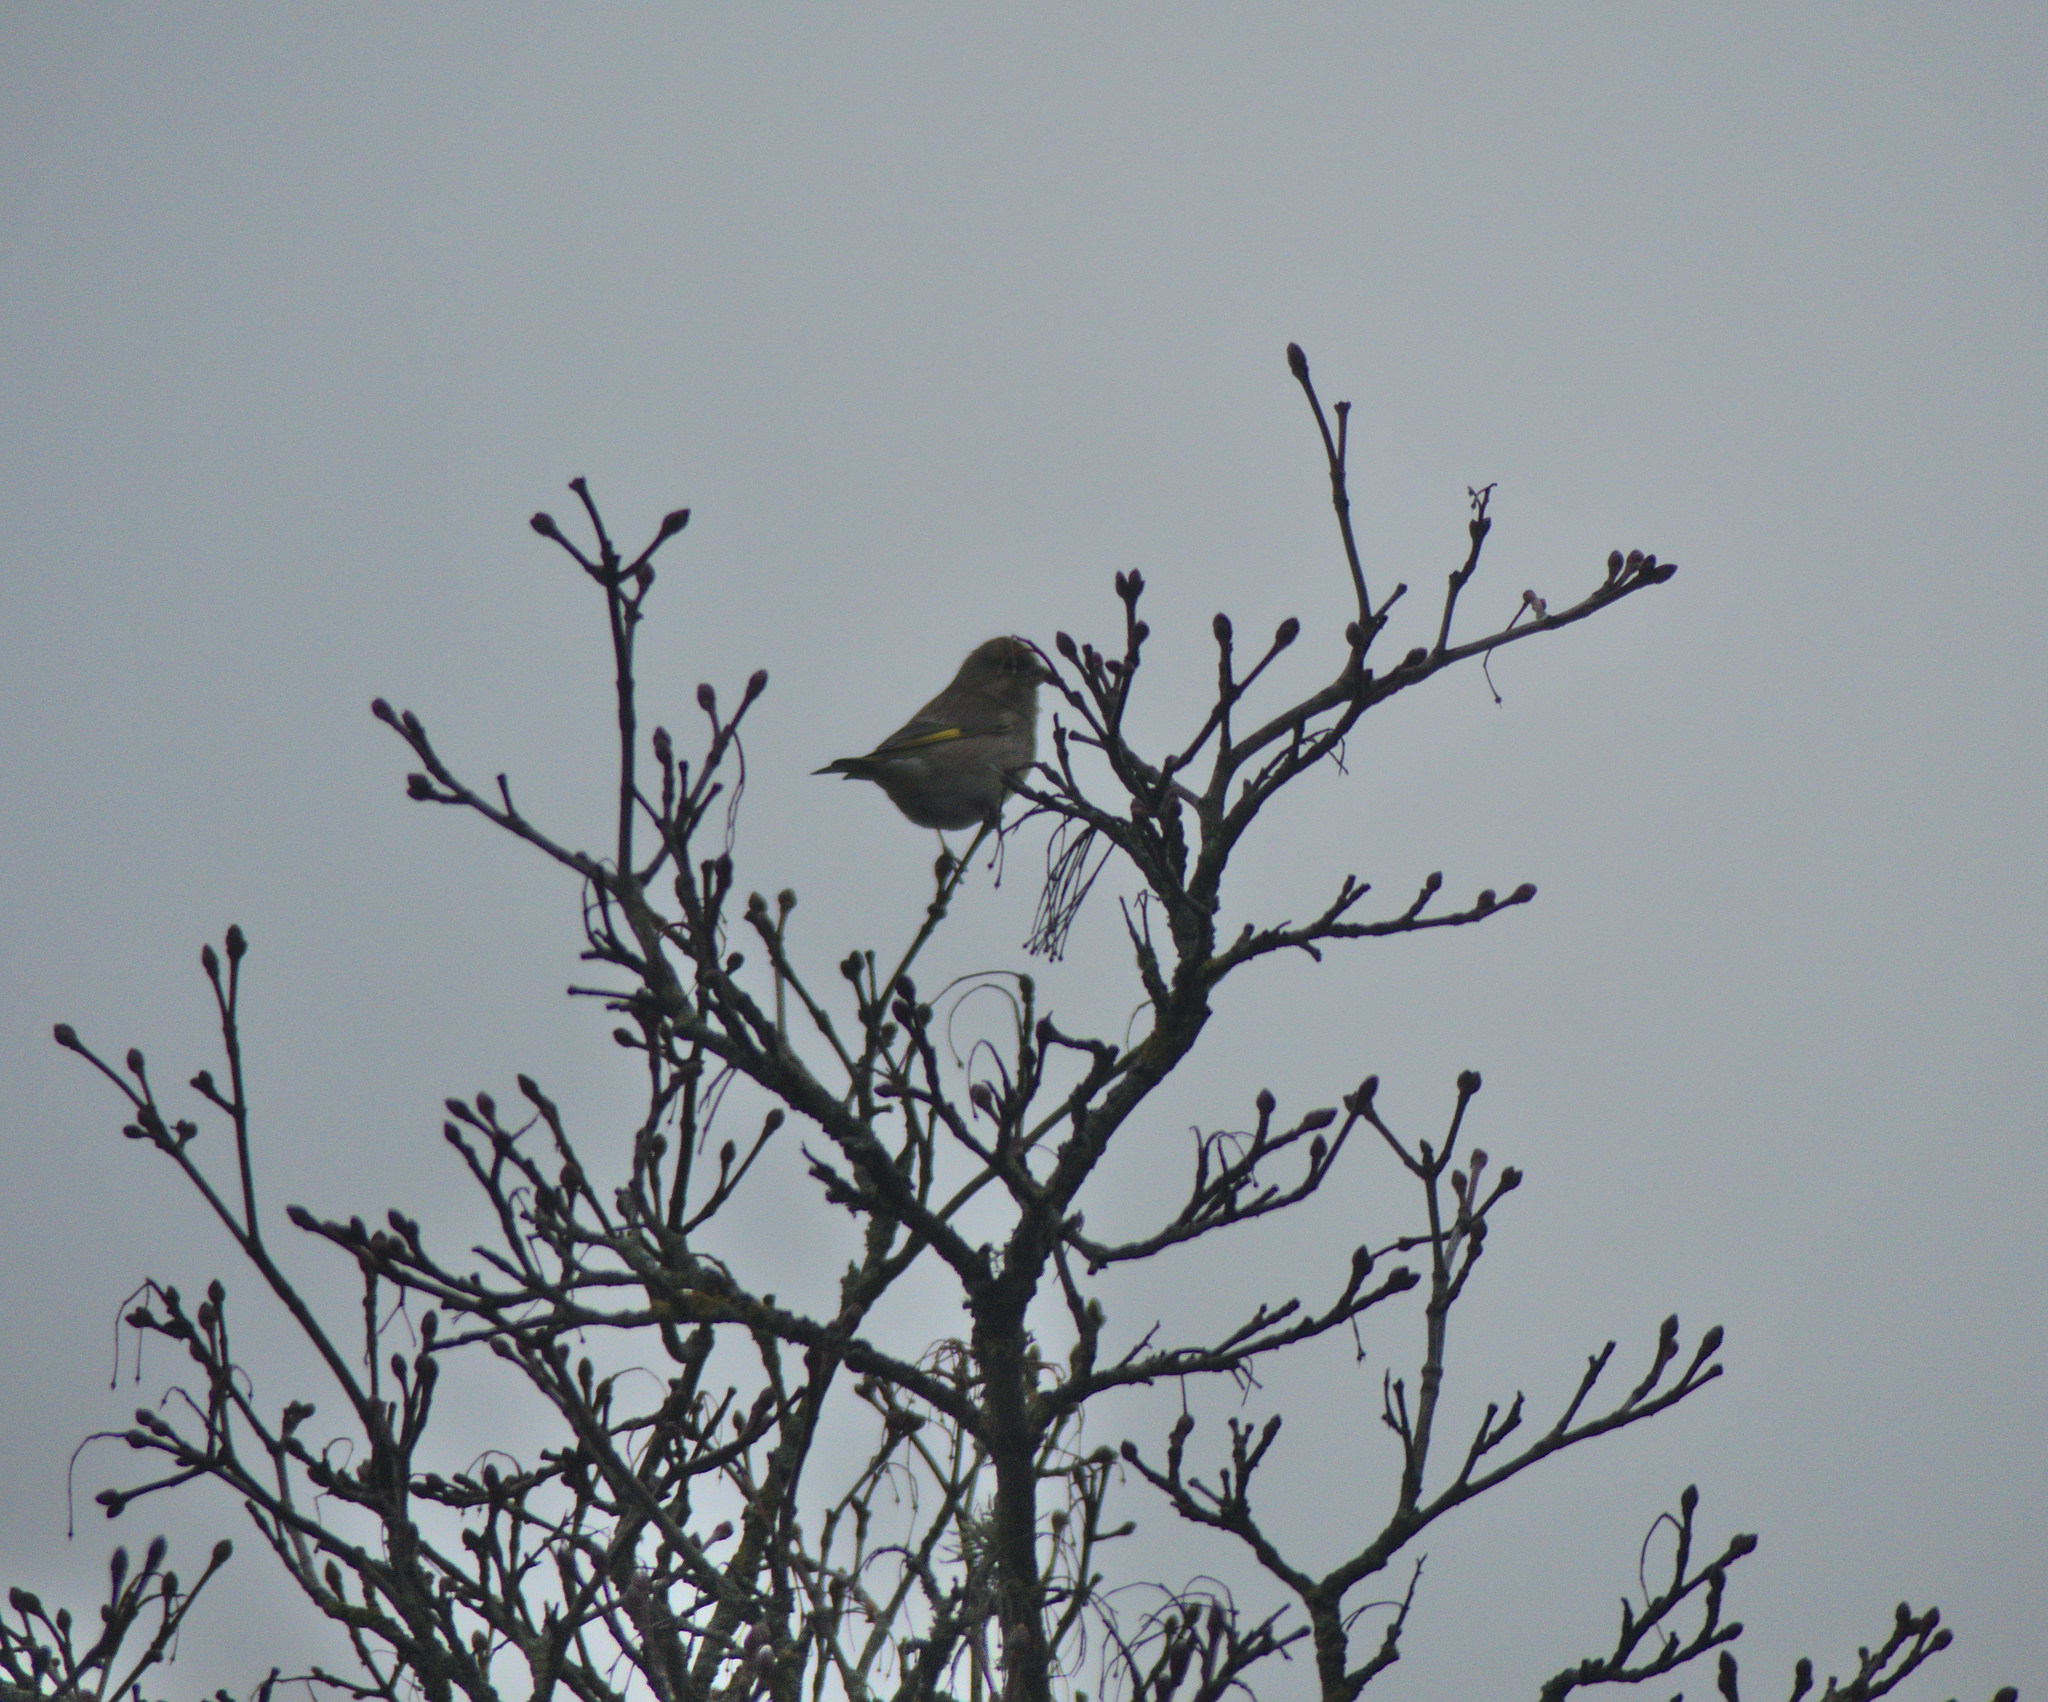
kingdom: Plantae
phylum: Tracheophyta
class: Liliopsida
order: Poales
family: Poaceae
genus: Chloris
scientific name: Chloris chloris
